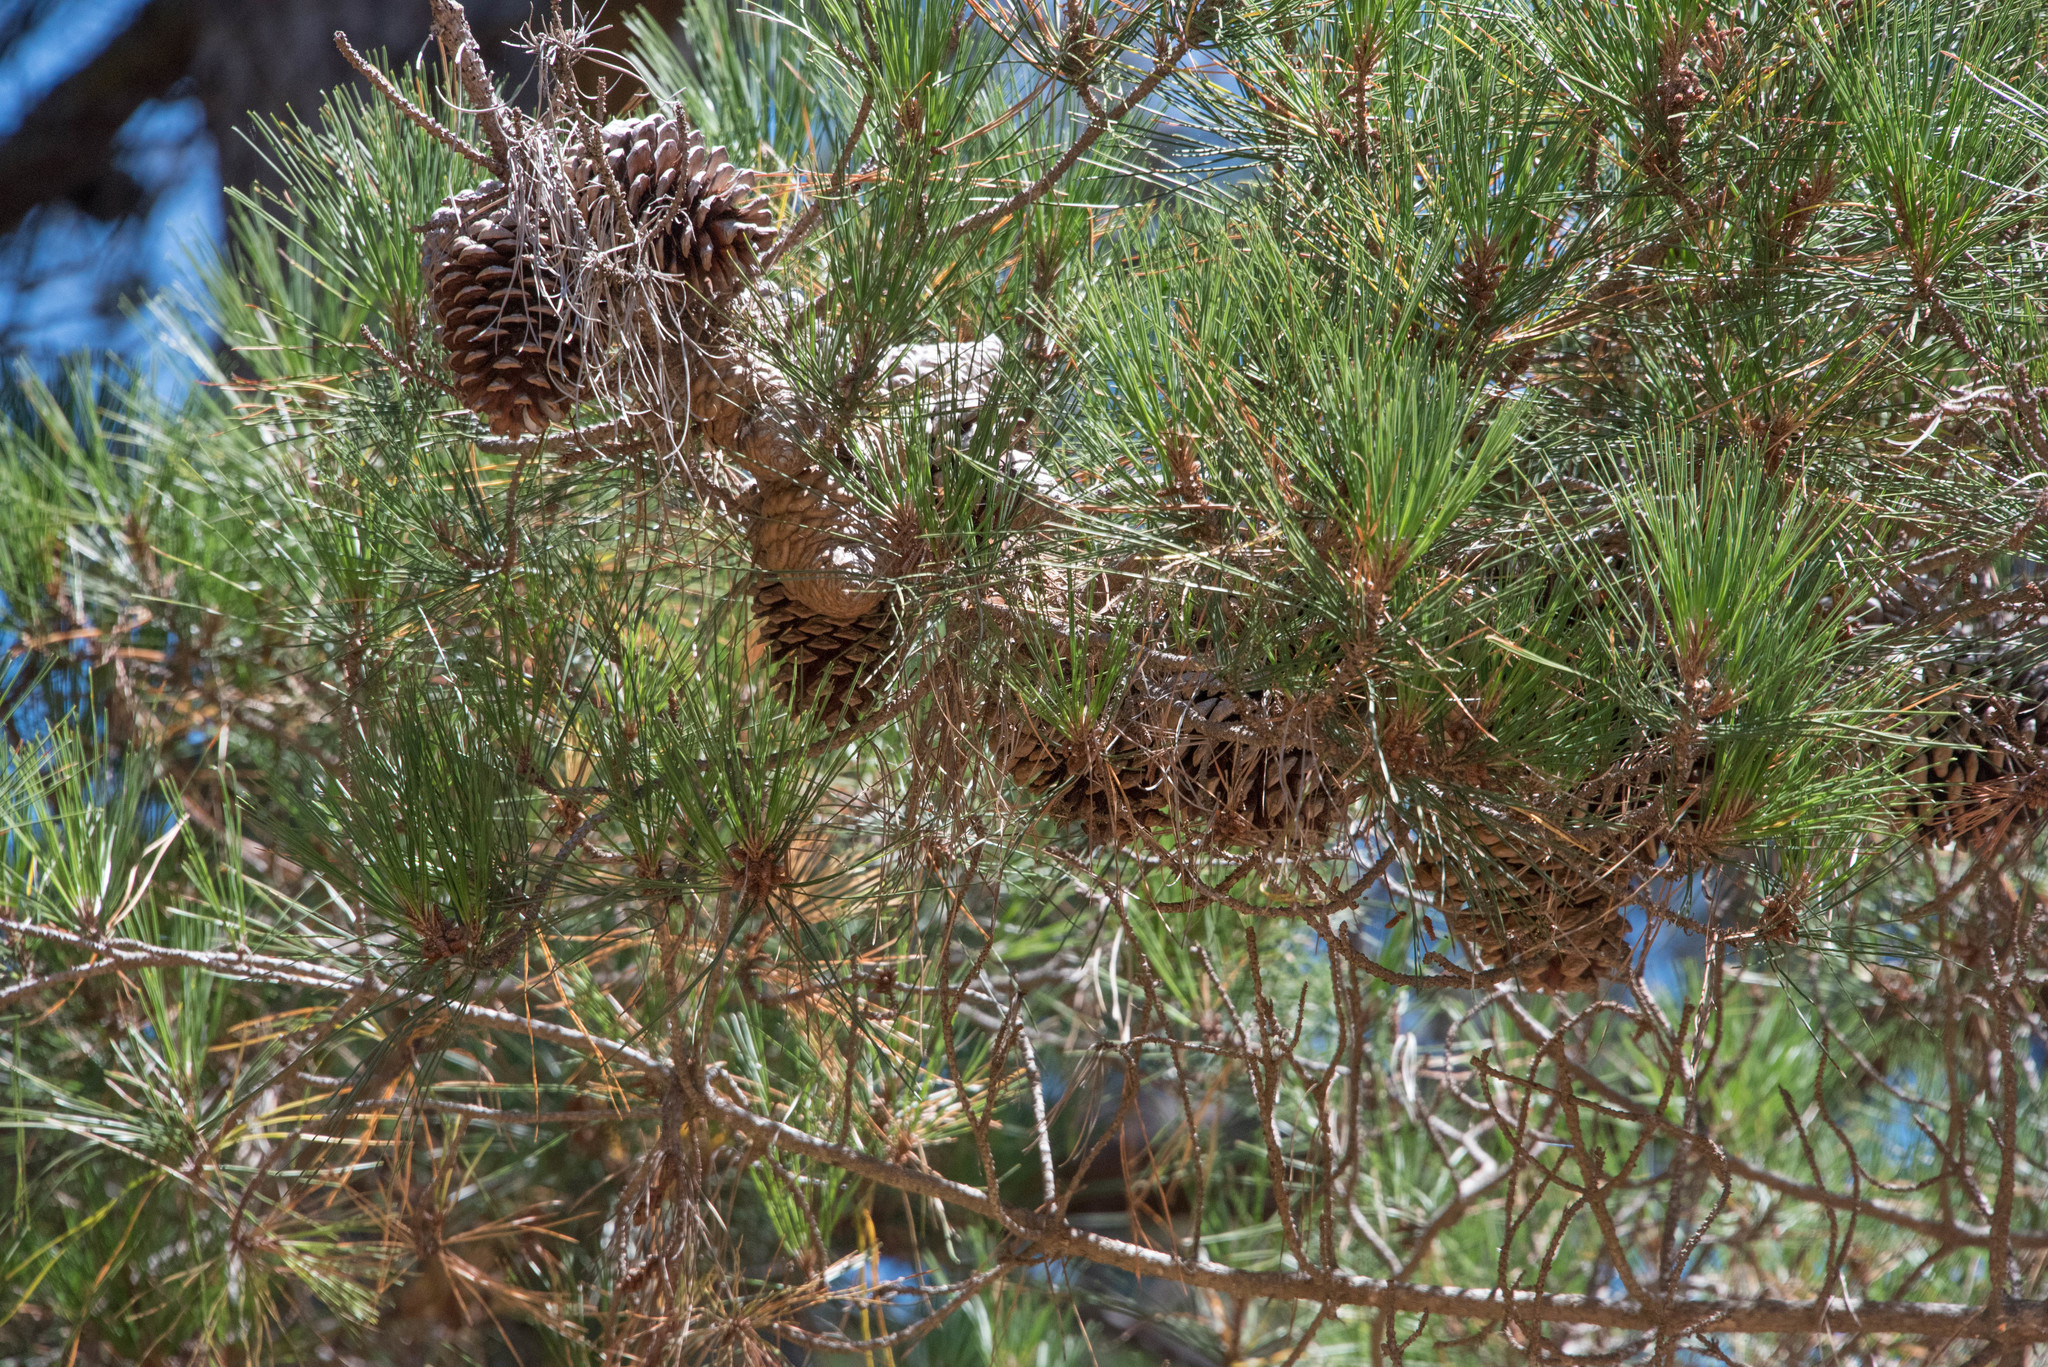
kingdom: Plantae
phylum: Tracheophyta
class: Pinopsida
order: Pinales
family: Pinaceae
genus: Pinus
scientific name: Pinus radiata
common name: Monterey pine
